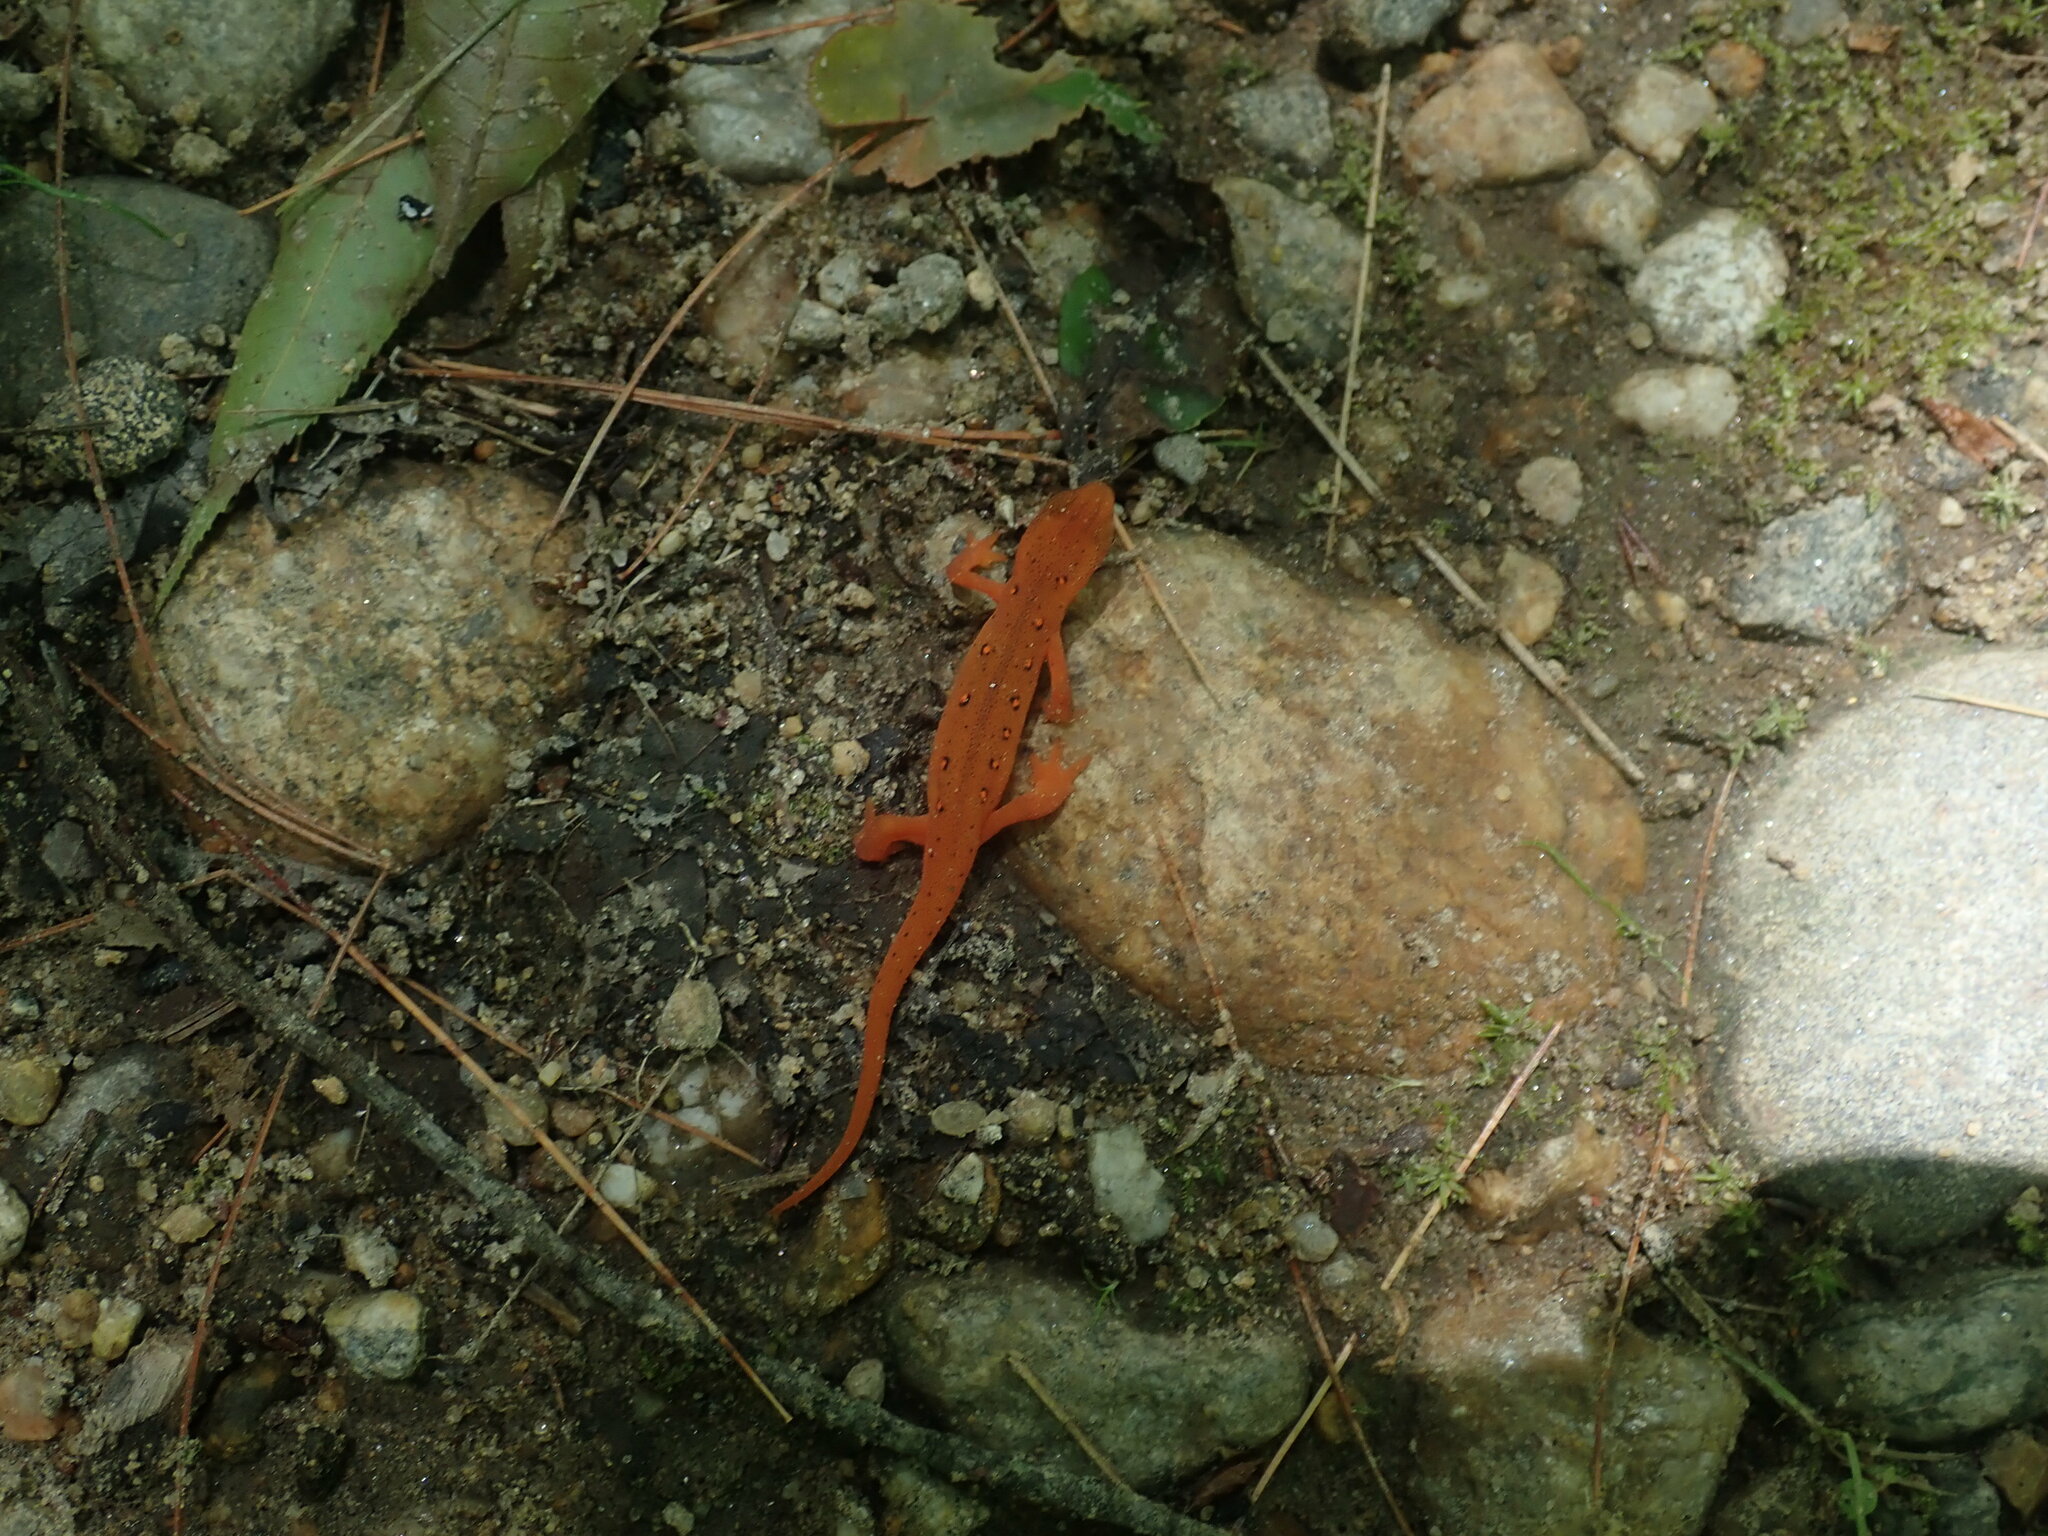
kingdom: Animalia
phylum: Chordata
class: Amphibia
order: Caudata
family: Salamandridae
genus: Notophthalmus
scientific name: Notophthalmus viridescens
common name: Eastern newt
